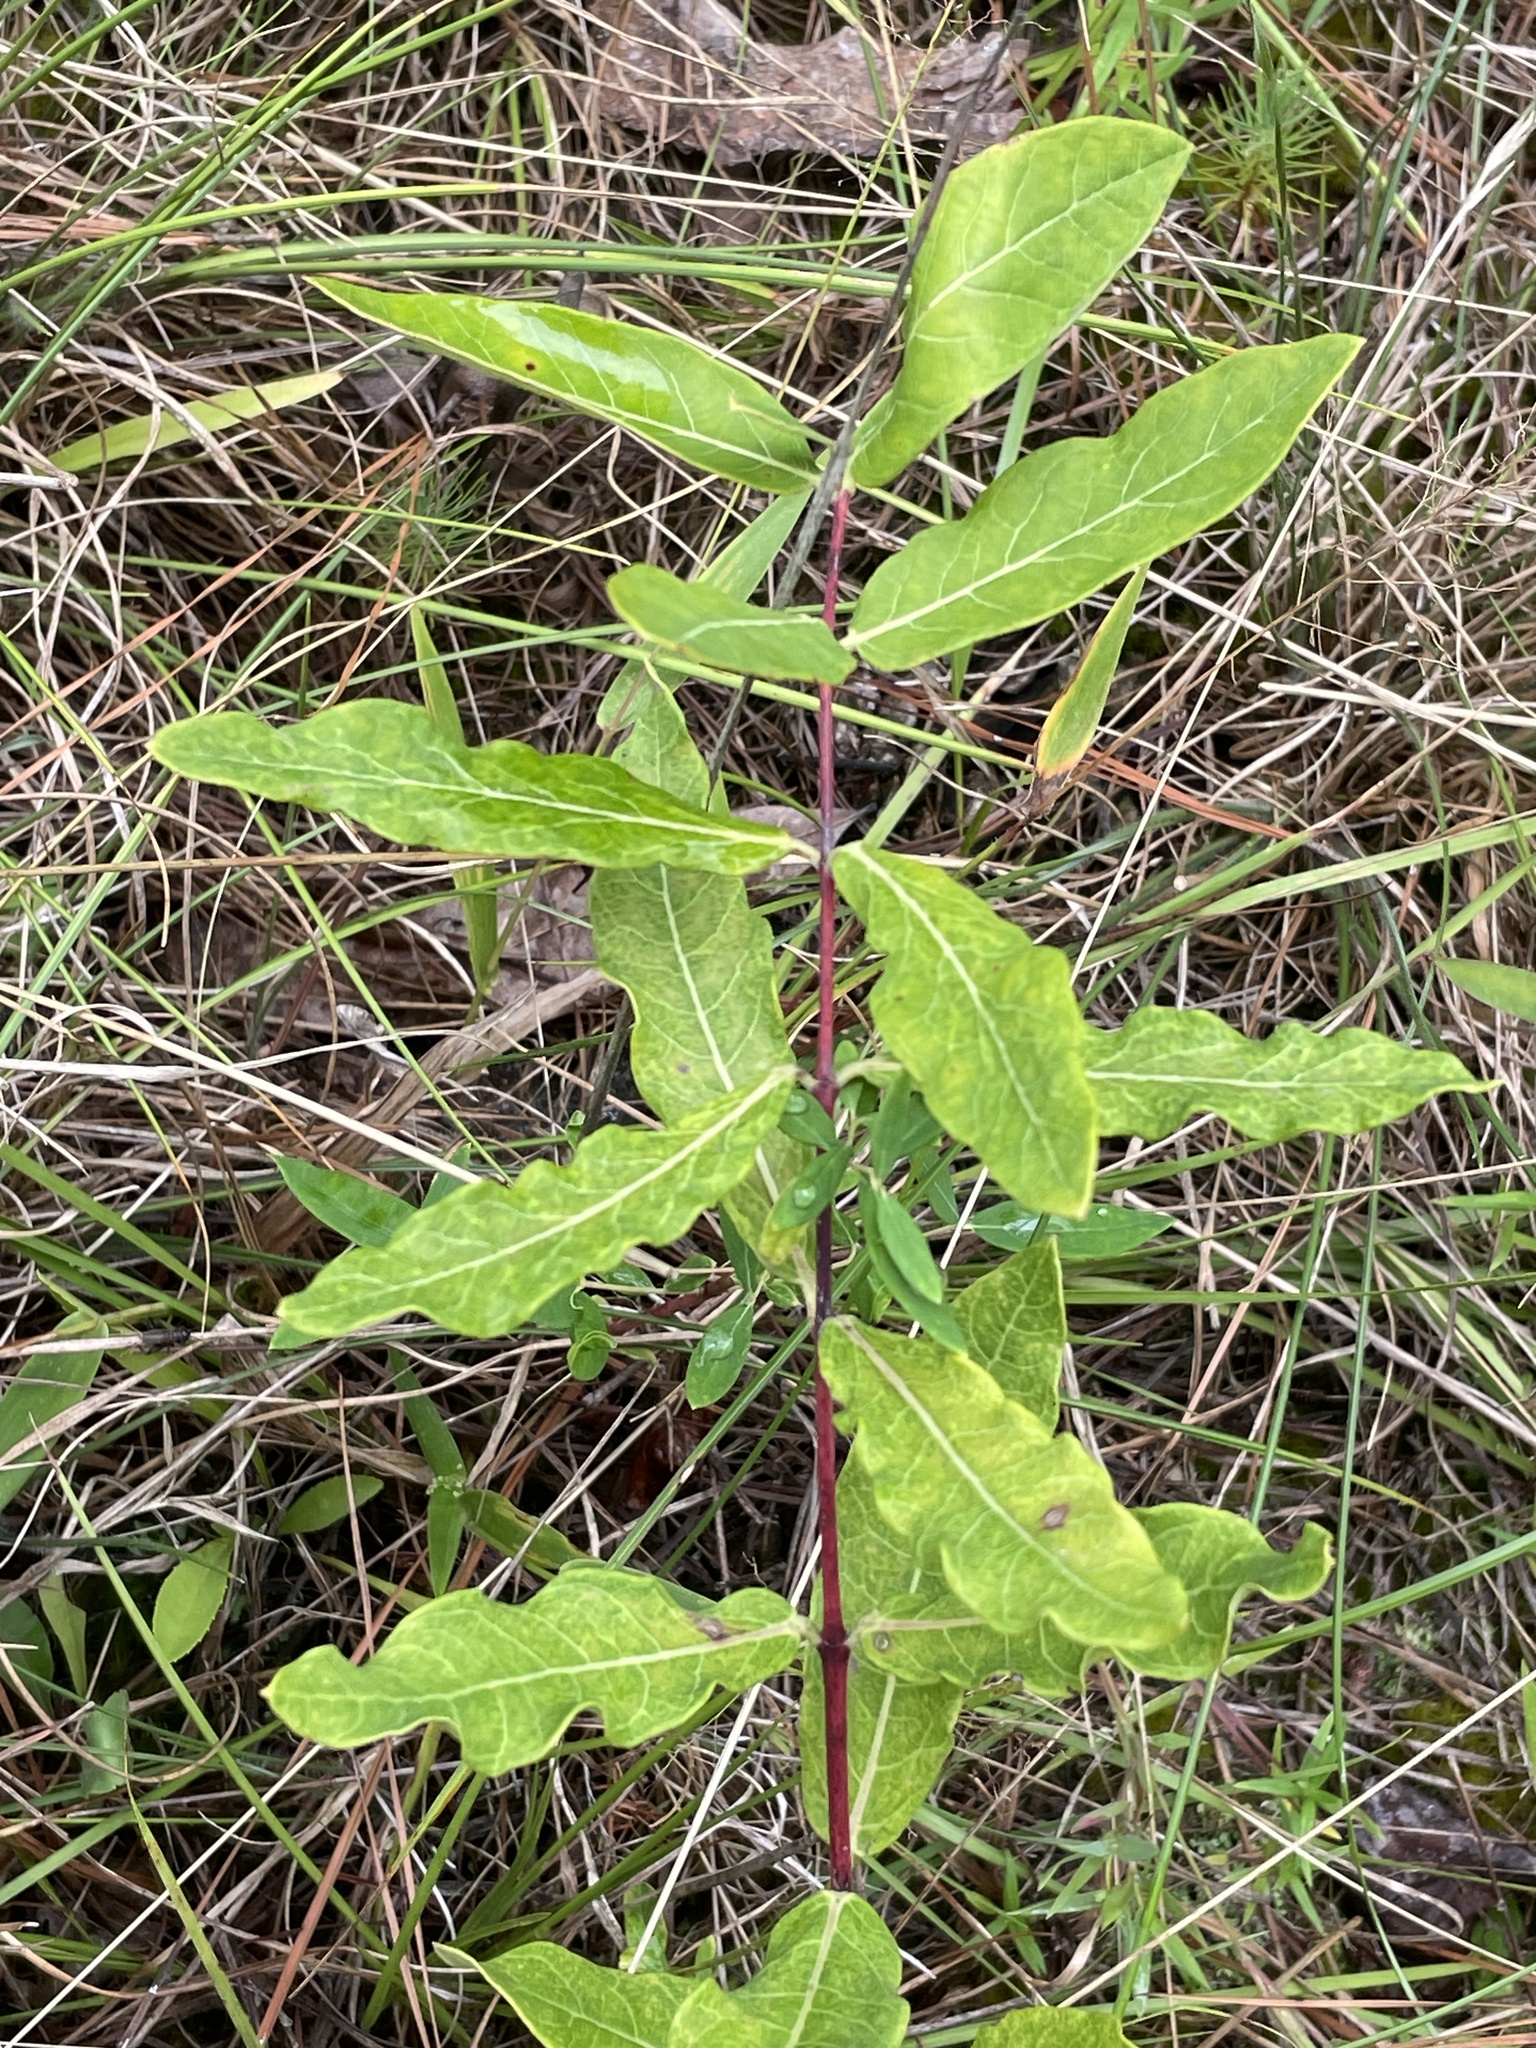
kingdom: Plantae
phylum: Tracheophyta
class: Magnoliopsida
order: Gentianales
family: Apocynaceae
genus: Asclepias
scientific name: Asclepias viridiflora
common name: Green comet milkweed
